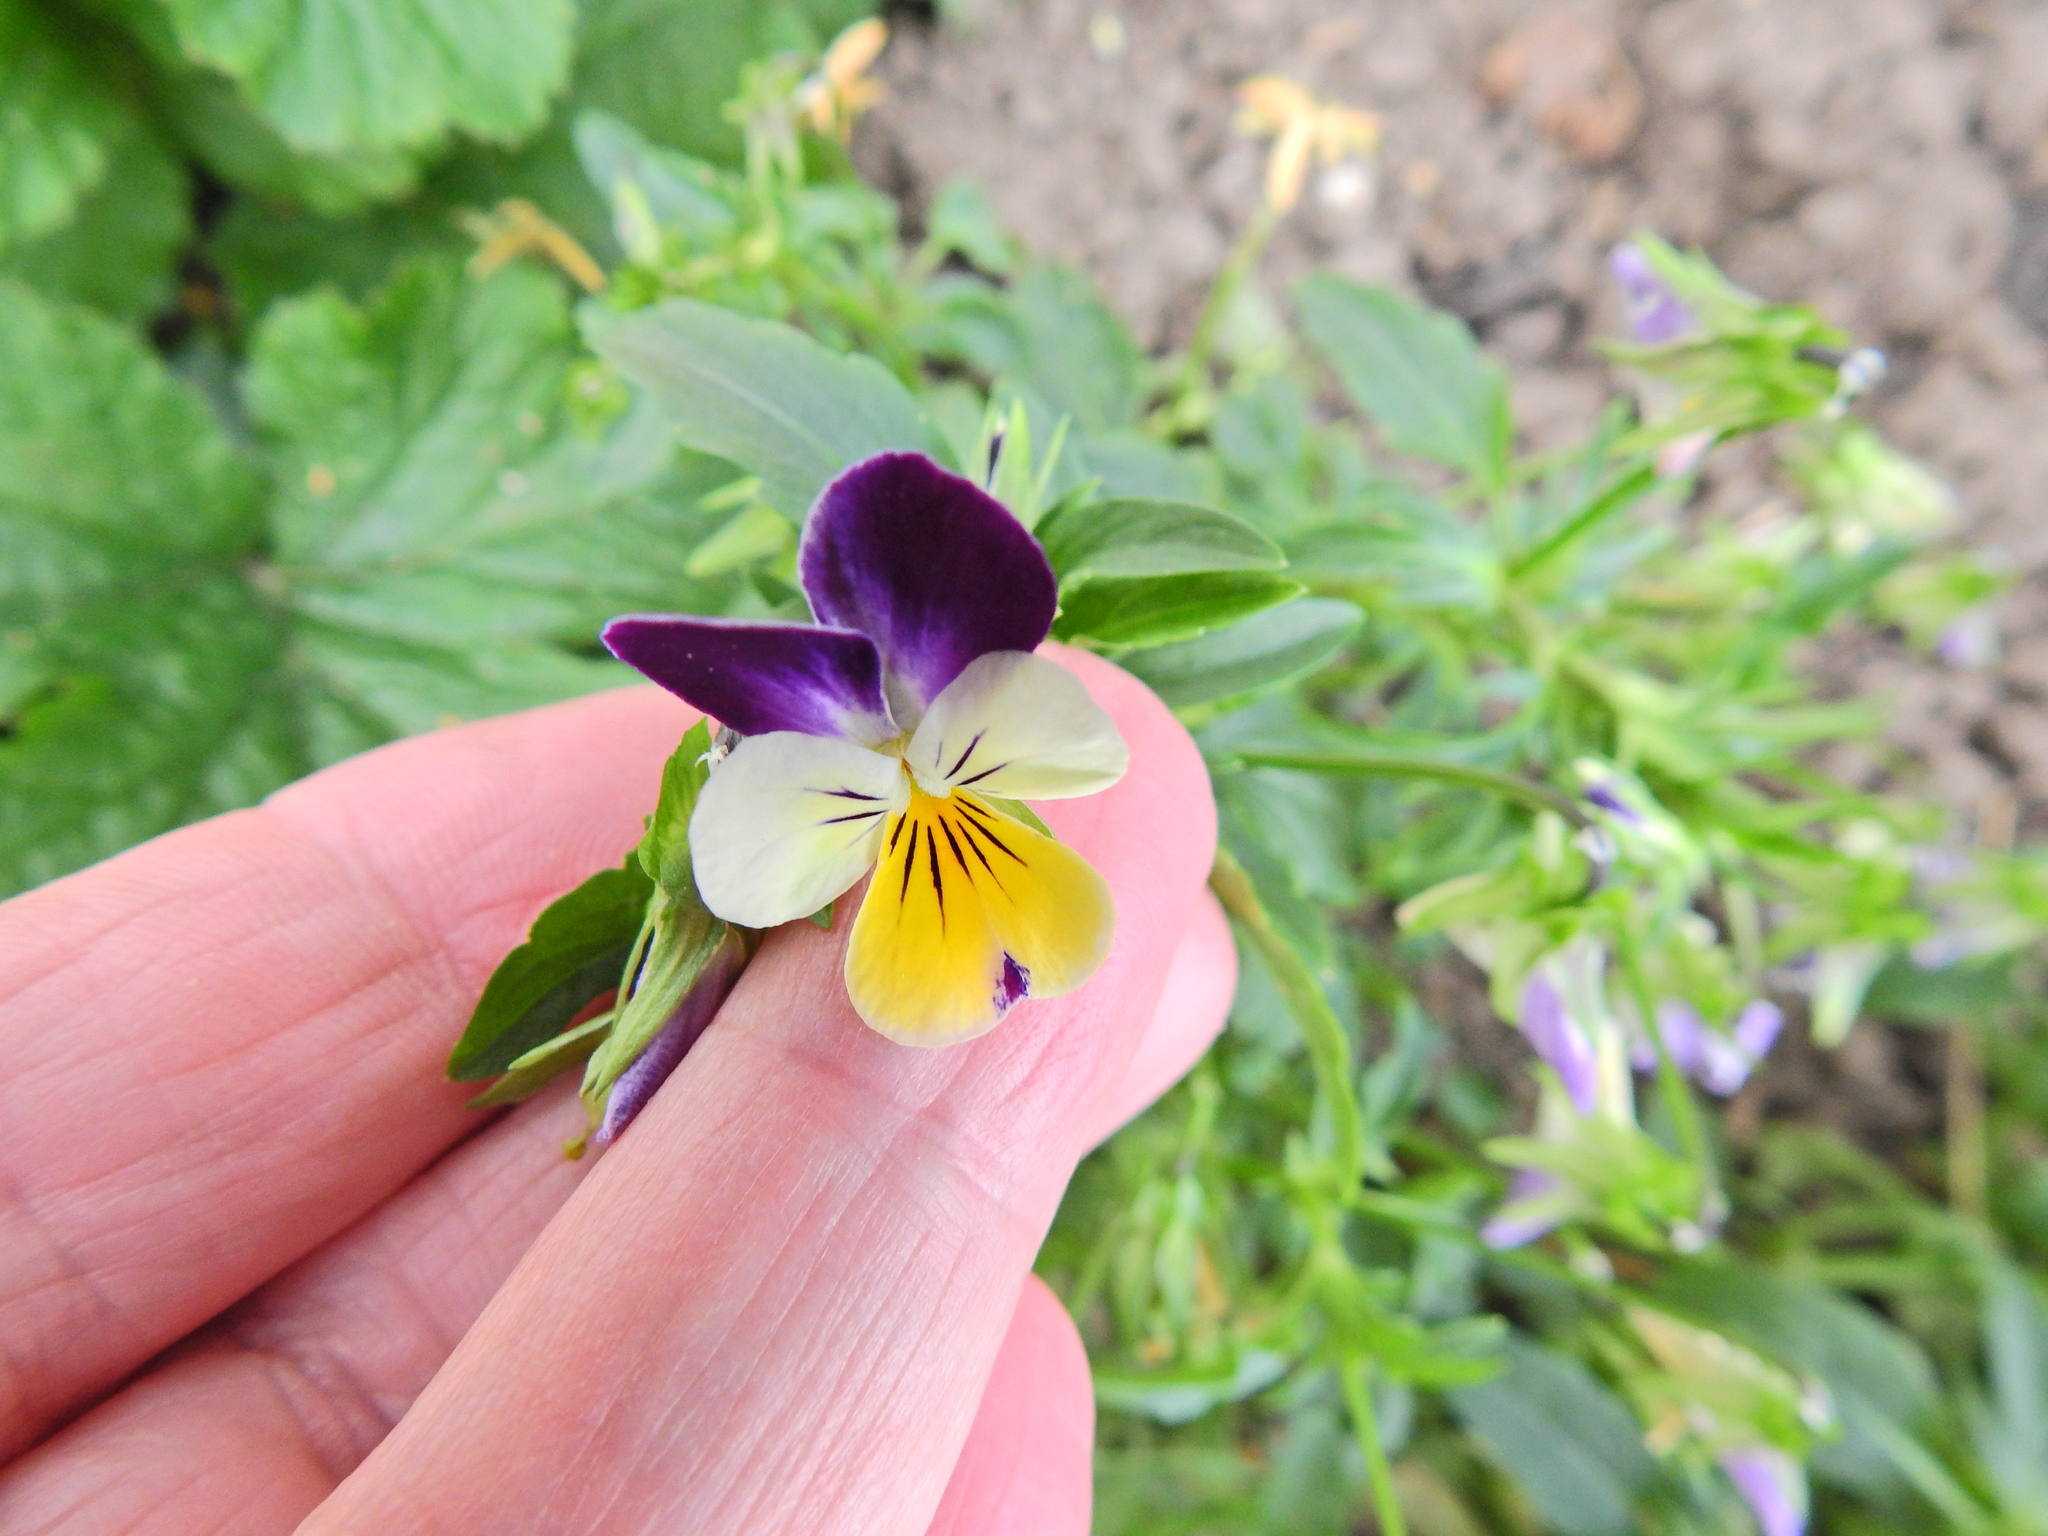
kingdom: Plantae
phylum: Tracheophyta
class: Magnoliopsida
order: Malpighiales
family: Violaceae
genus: Viola
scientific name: Viola williamsii
